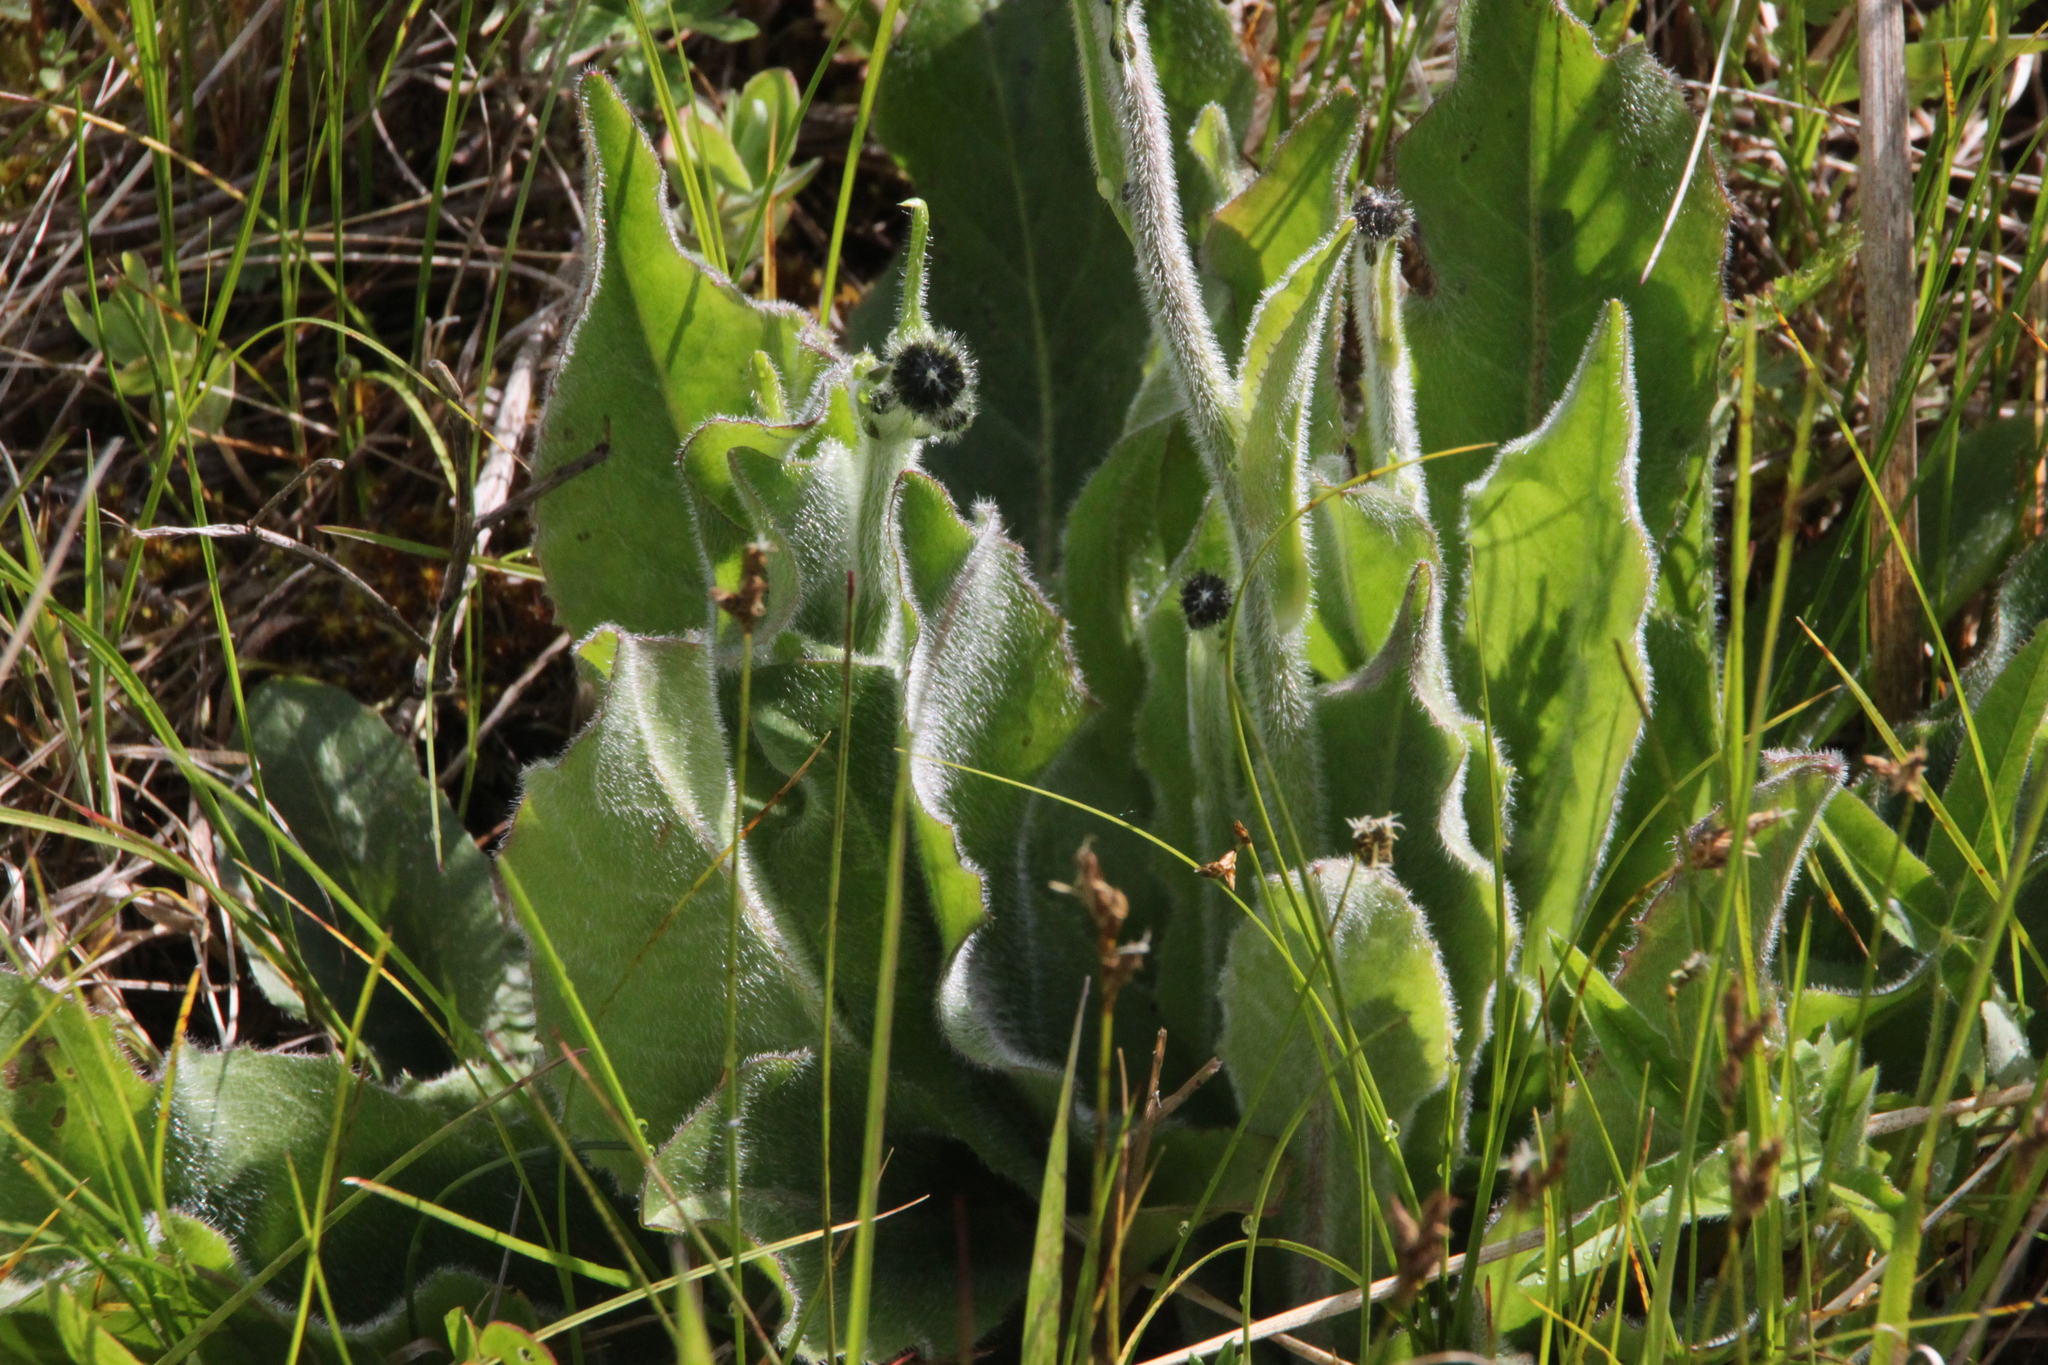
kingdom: Plantae
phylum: Tracheophyta
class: Magnoliopsida
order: Asterales
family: Asteraceae
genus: Trommsdorffia
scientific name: Trommsdorffia maculata
